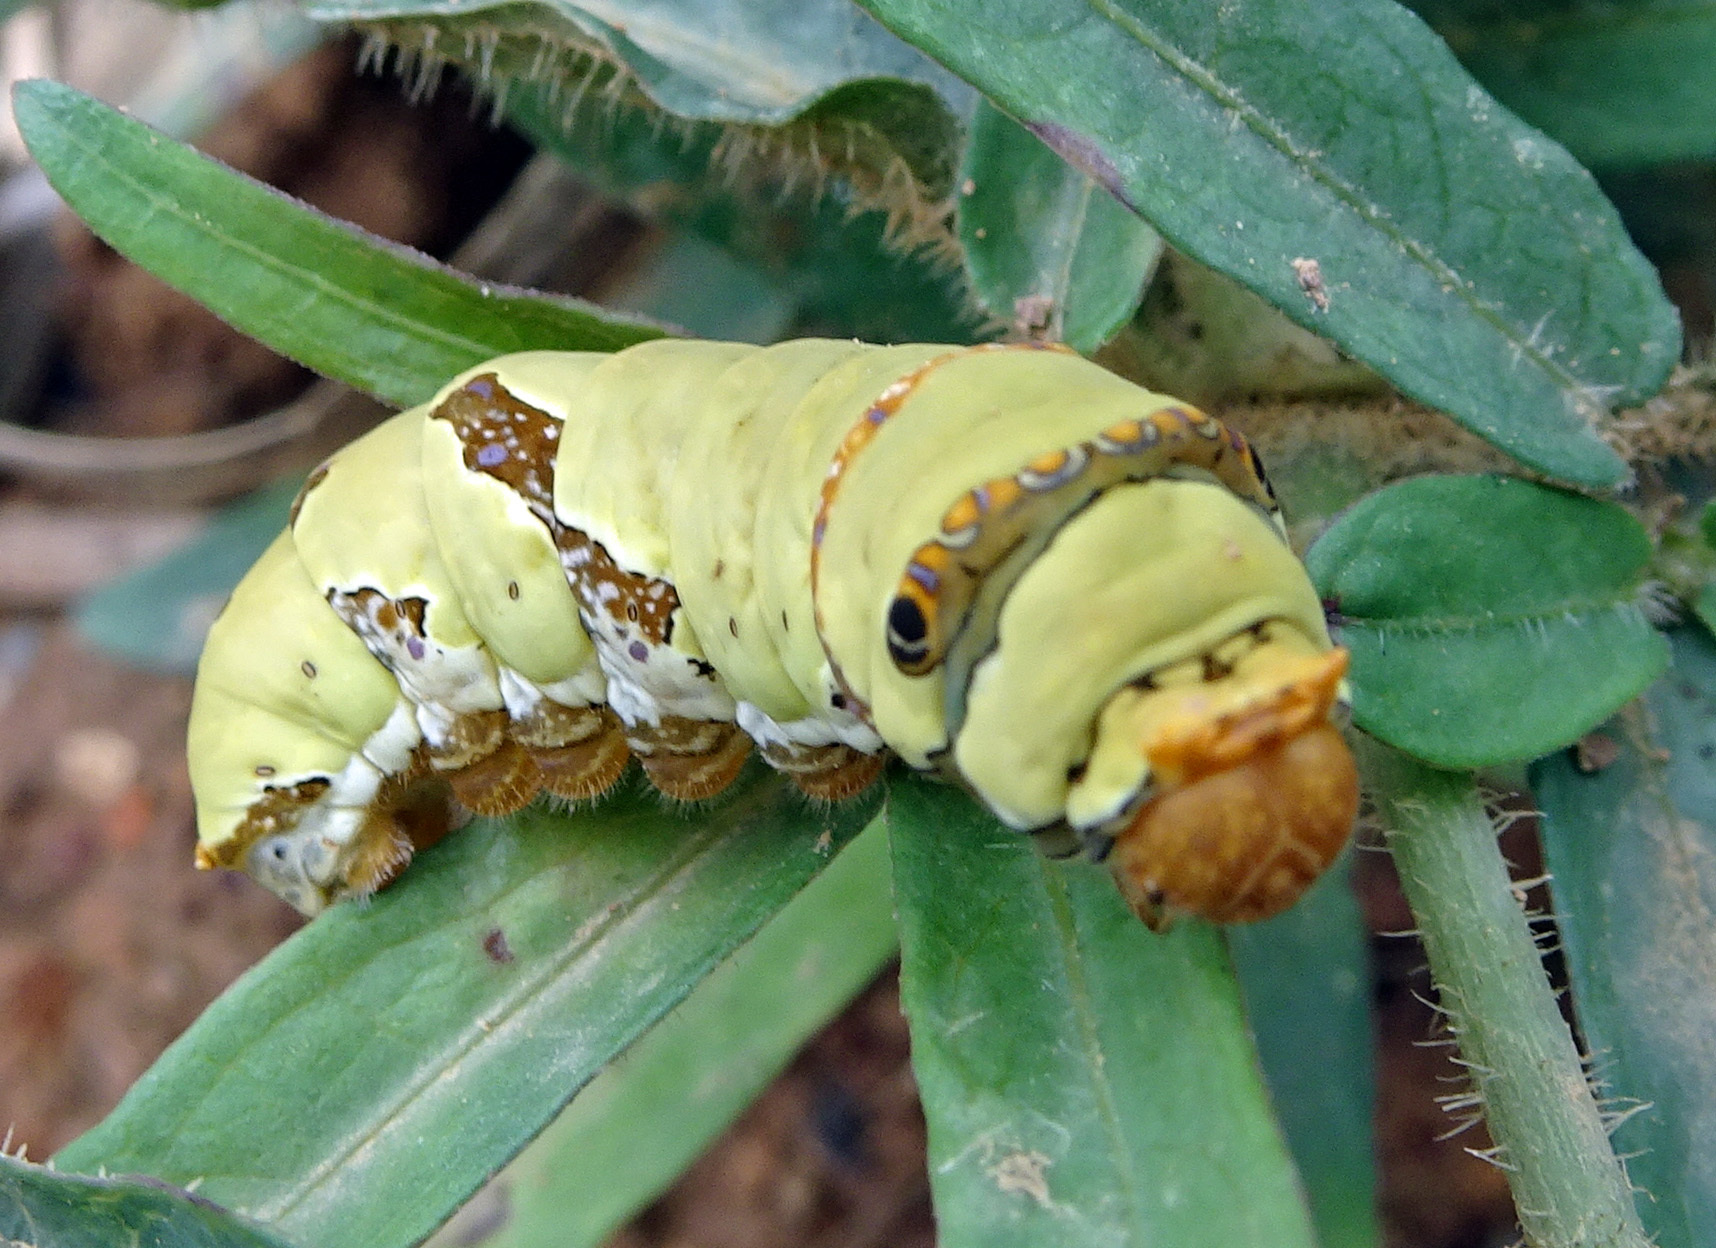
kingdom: Animalia
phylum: Arthropoda
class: Insecta
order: Lepidoptera
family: Papilionidae
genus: Papilio
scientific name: Papilio demoleus
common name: Lime butterfly
